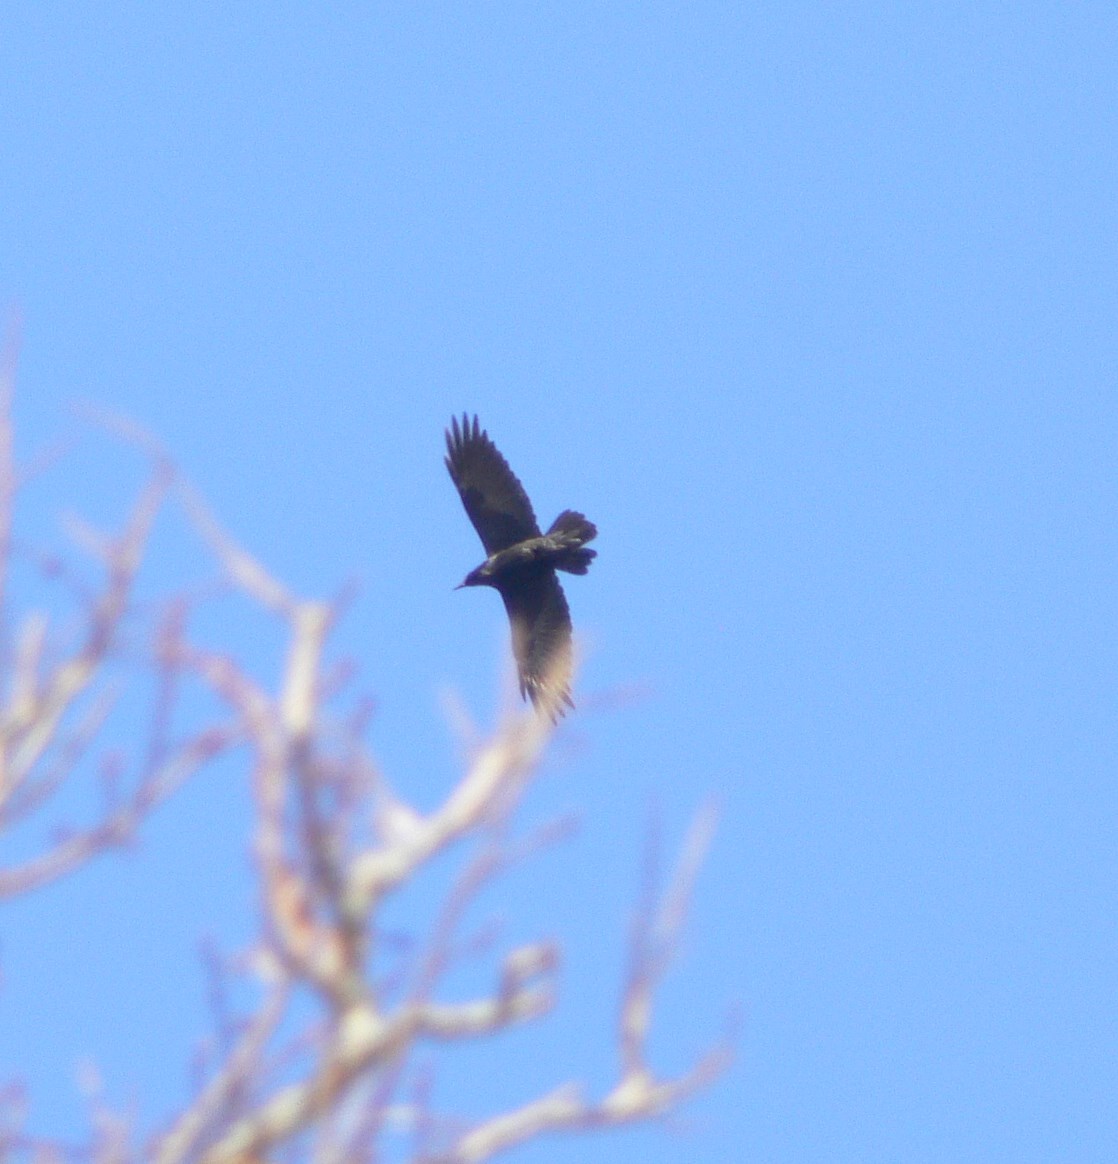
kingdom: Animalia
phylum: Chordata
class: Aves
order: Passeriformes
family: Corvidae
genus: Corvus
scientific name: Corvus corax
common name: Common raven
